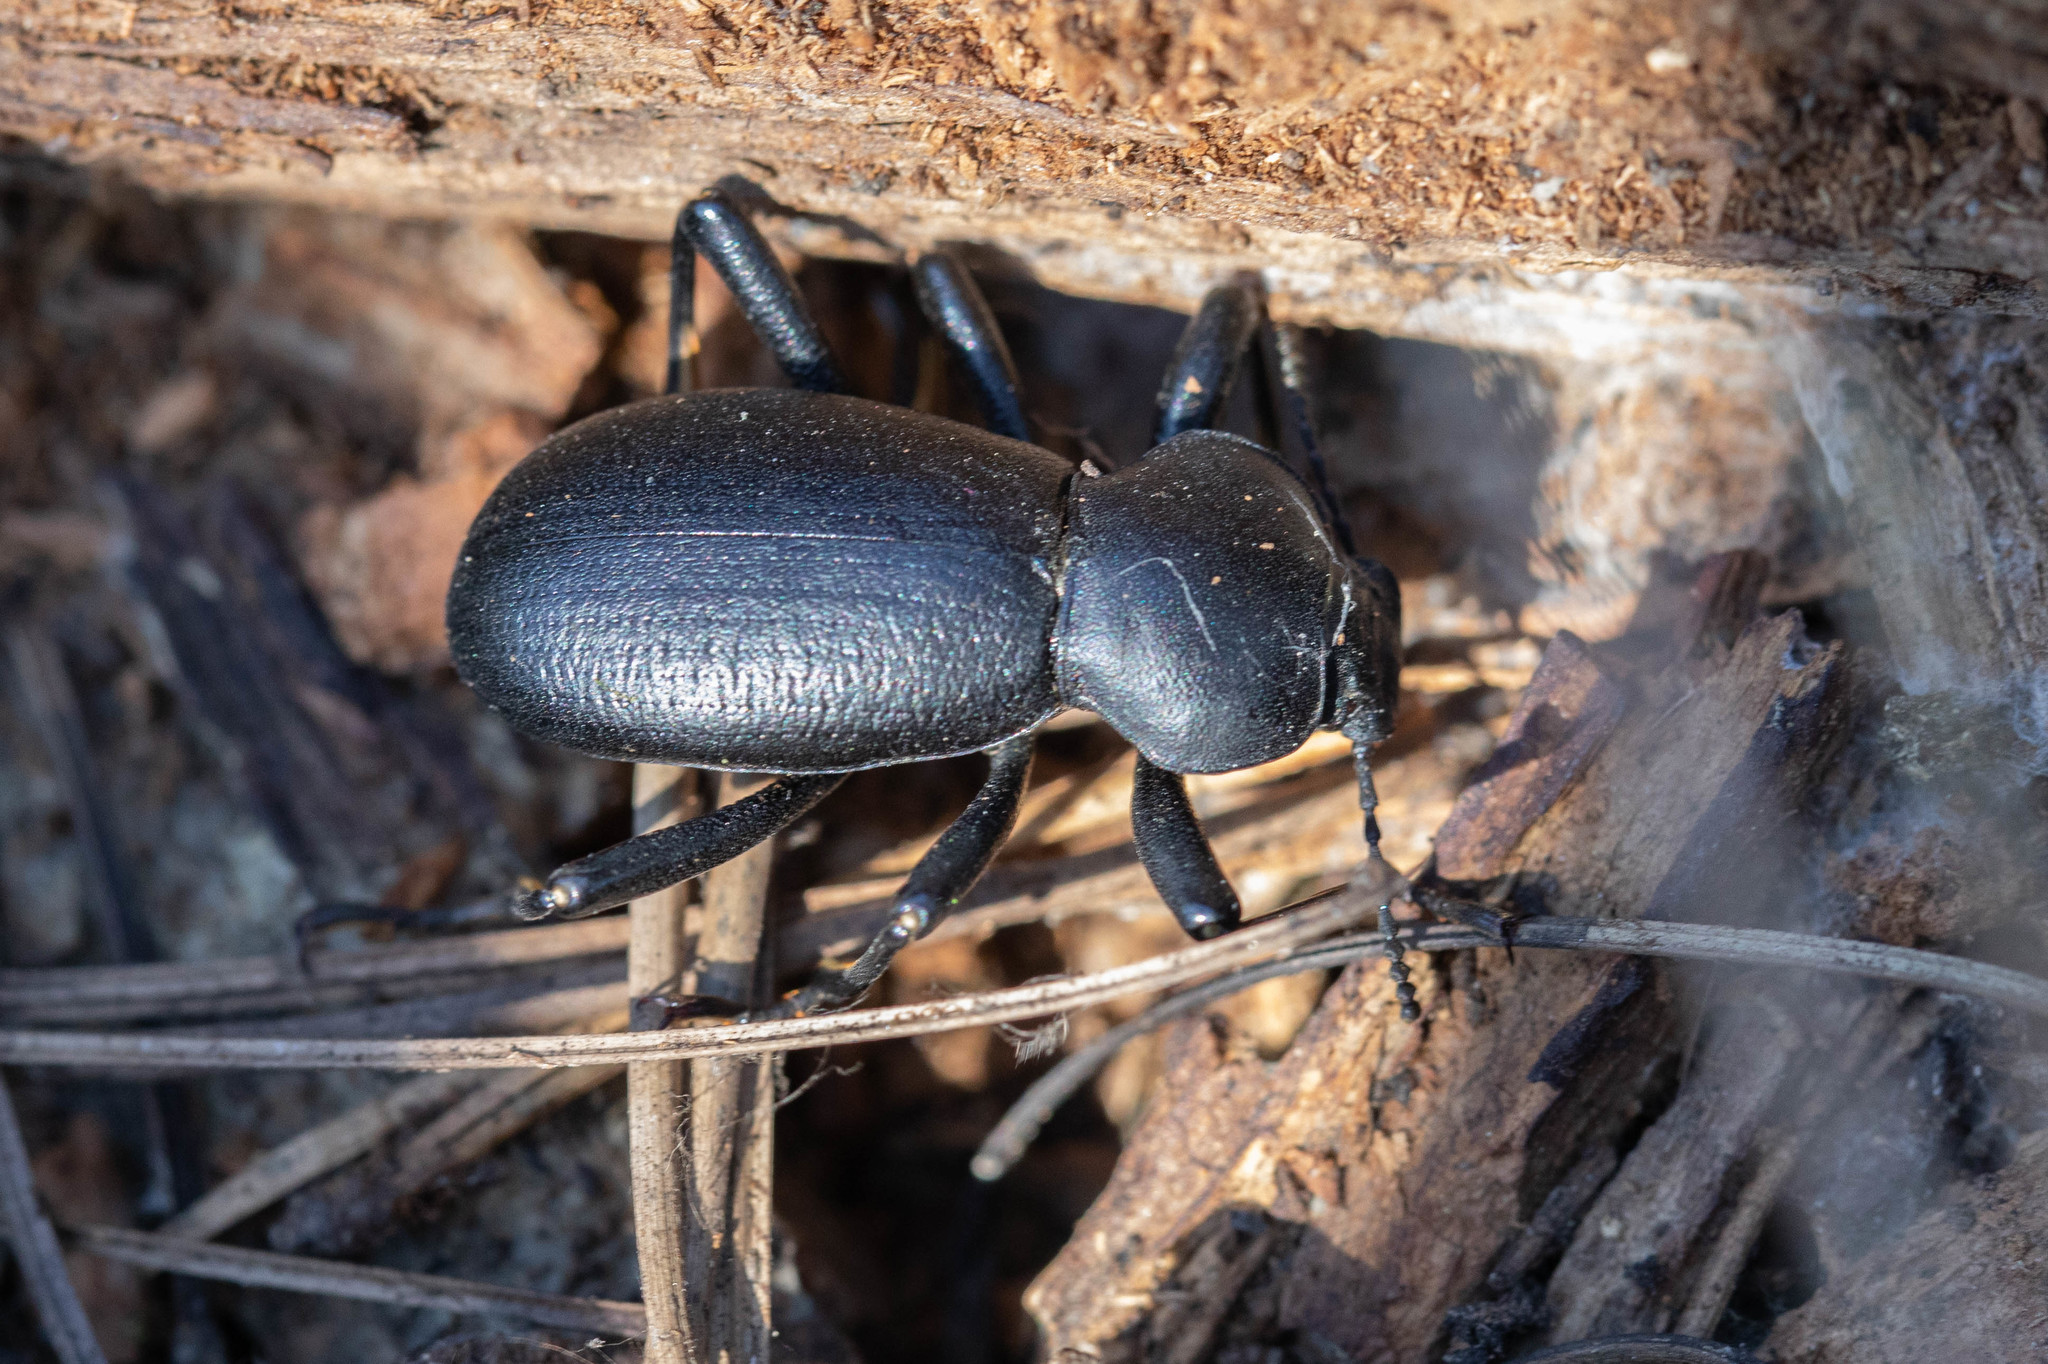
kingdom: Animalia
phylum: Arthropoda
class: Insecta
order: Coleoptera
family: Tenebrionidae
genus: Coelocnemis
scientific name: Coelocnemis dilaticollis
